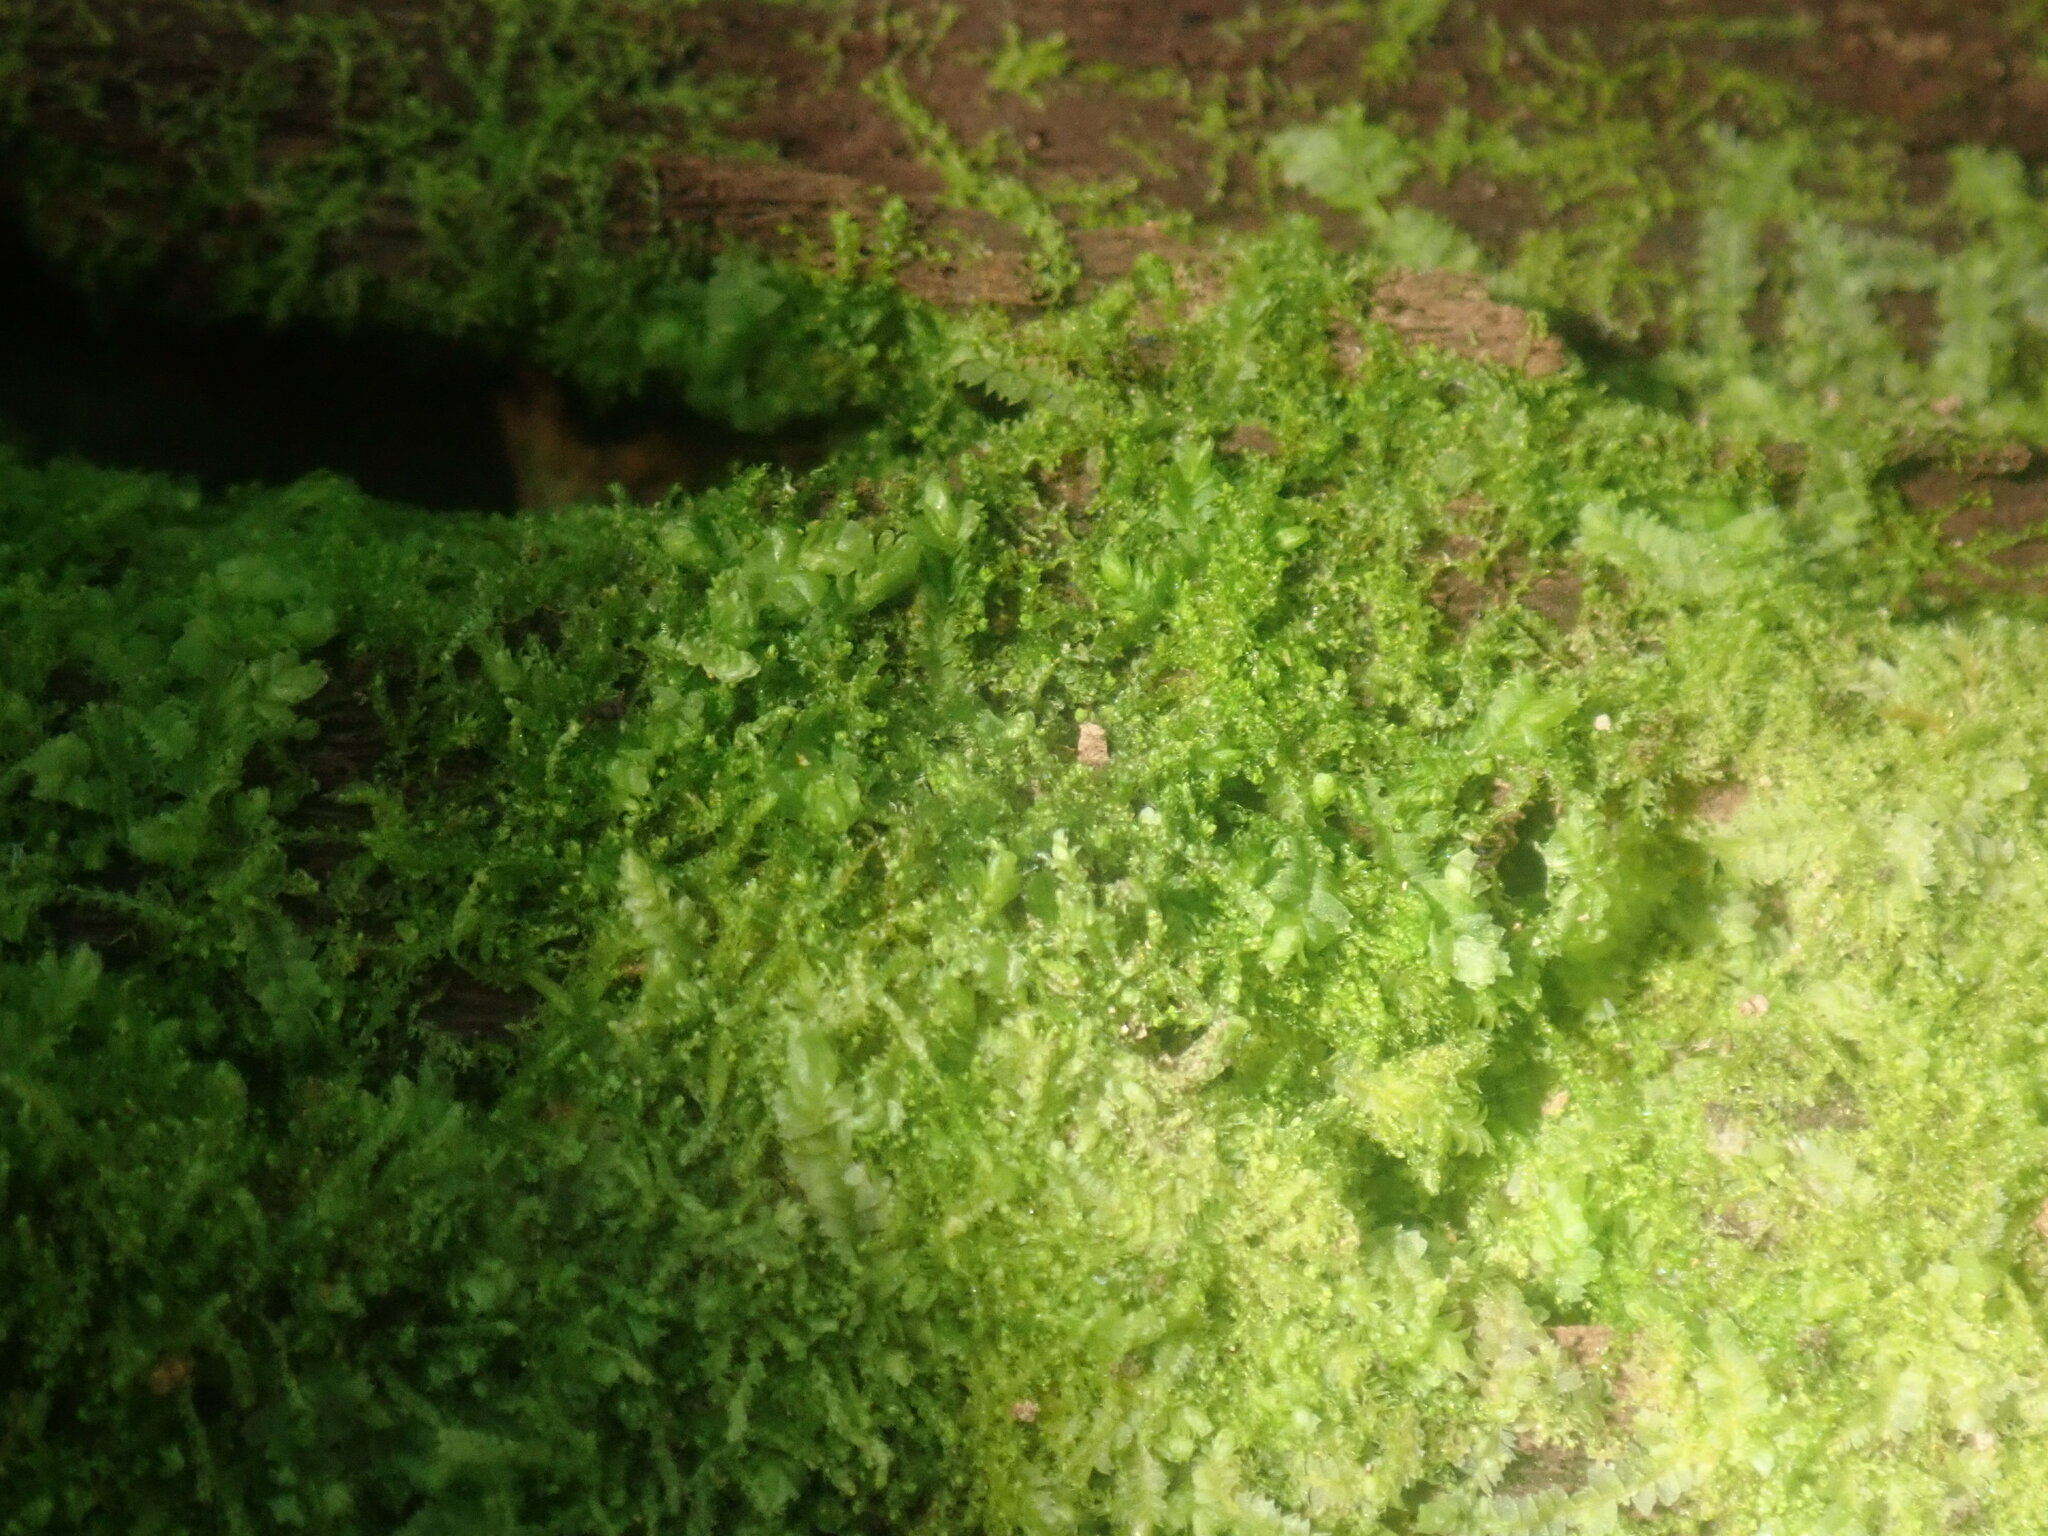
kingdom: Plantae
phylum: Marchantiophyta
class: Jungermanniopsida
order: Jungermanniales
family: Cephaloziaceae
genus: Nowellia
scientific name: Nowellia curvifolia
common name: Wood rustwort
